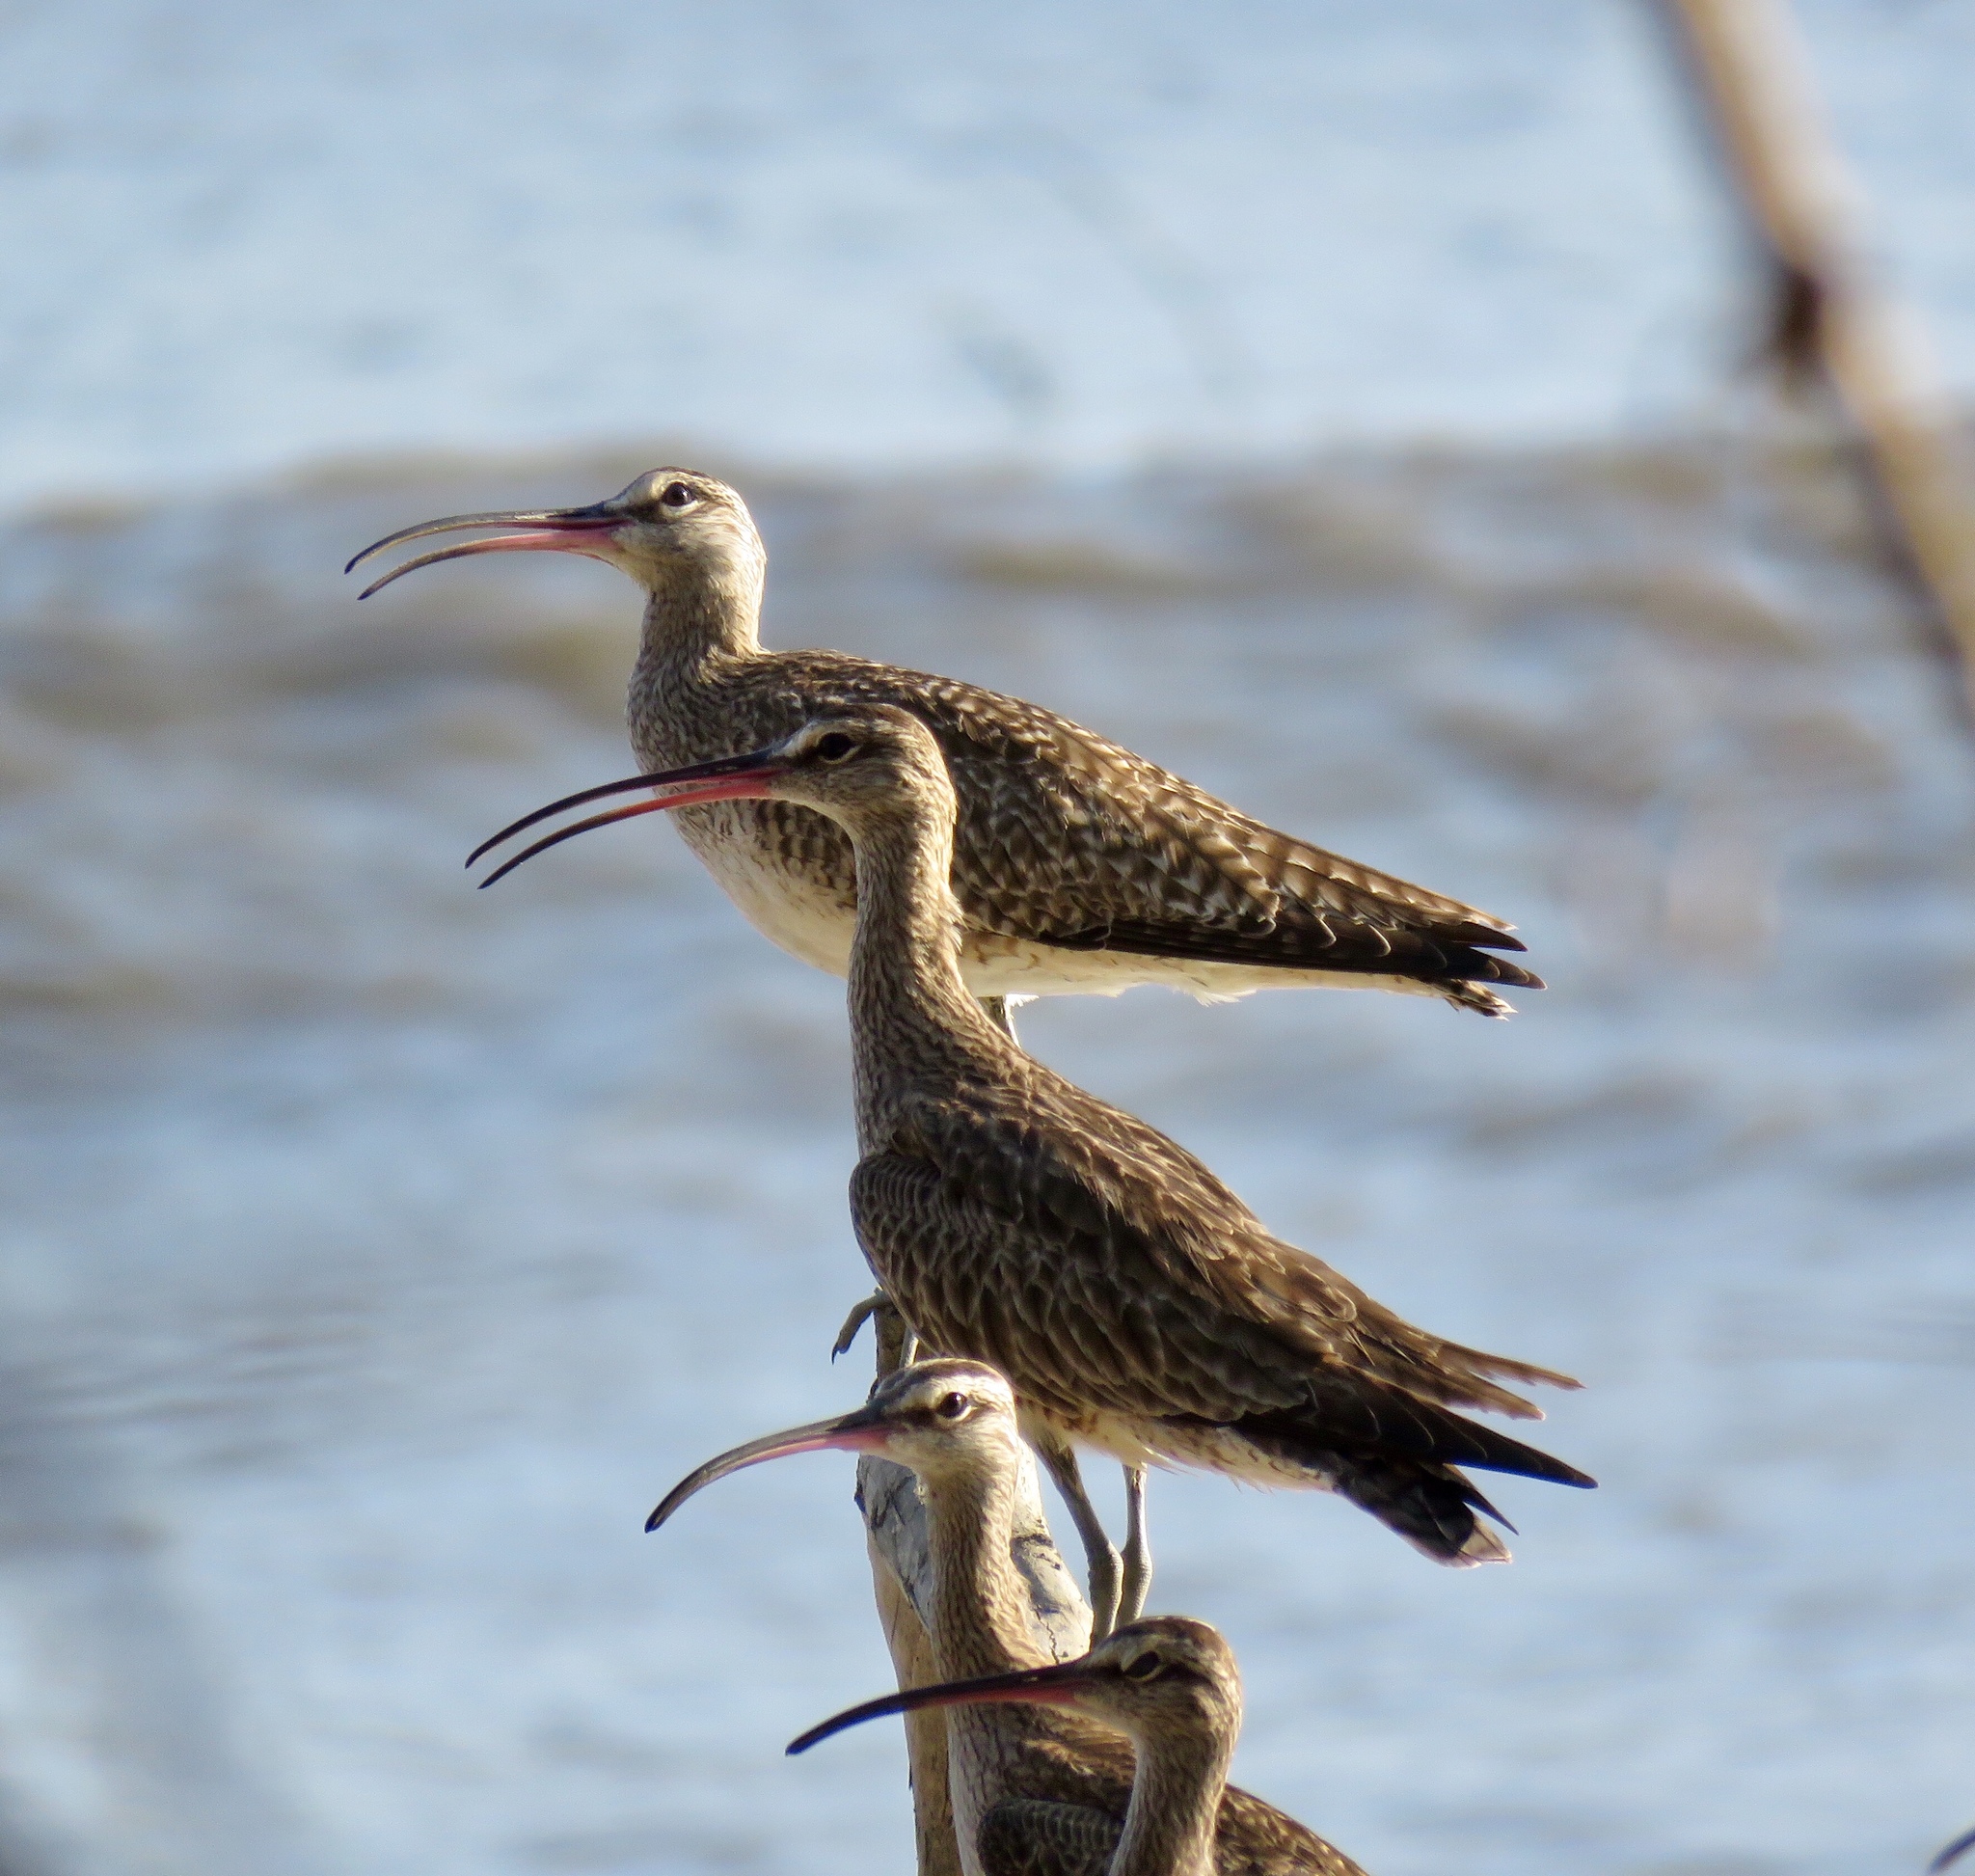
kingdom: Animalia
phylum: Chordata
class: Aves
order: Charadriiformes
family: Scolopacidae
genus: Numenius
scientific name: Numenius phaeopus
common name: Whimbrel
